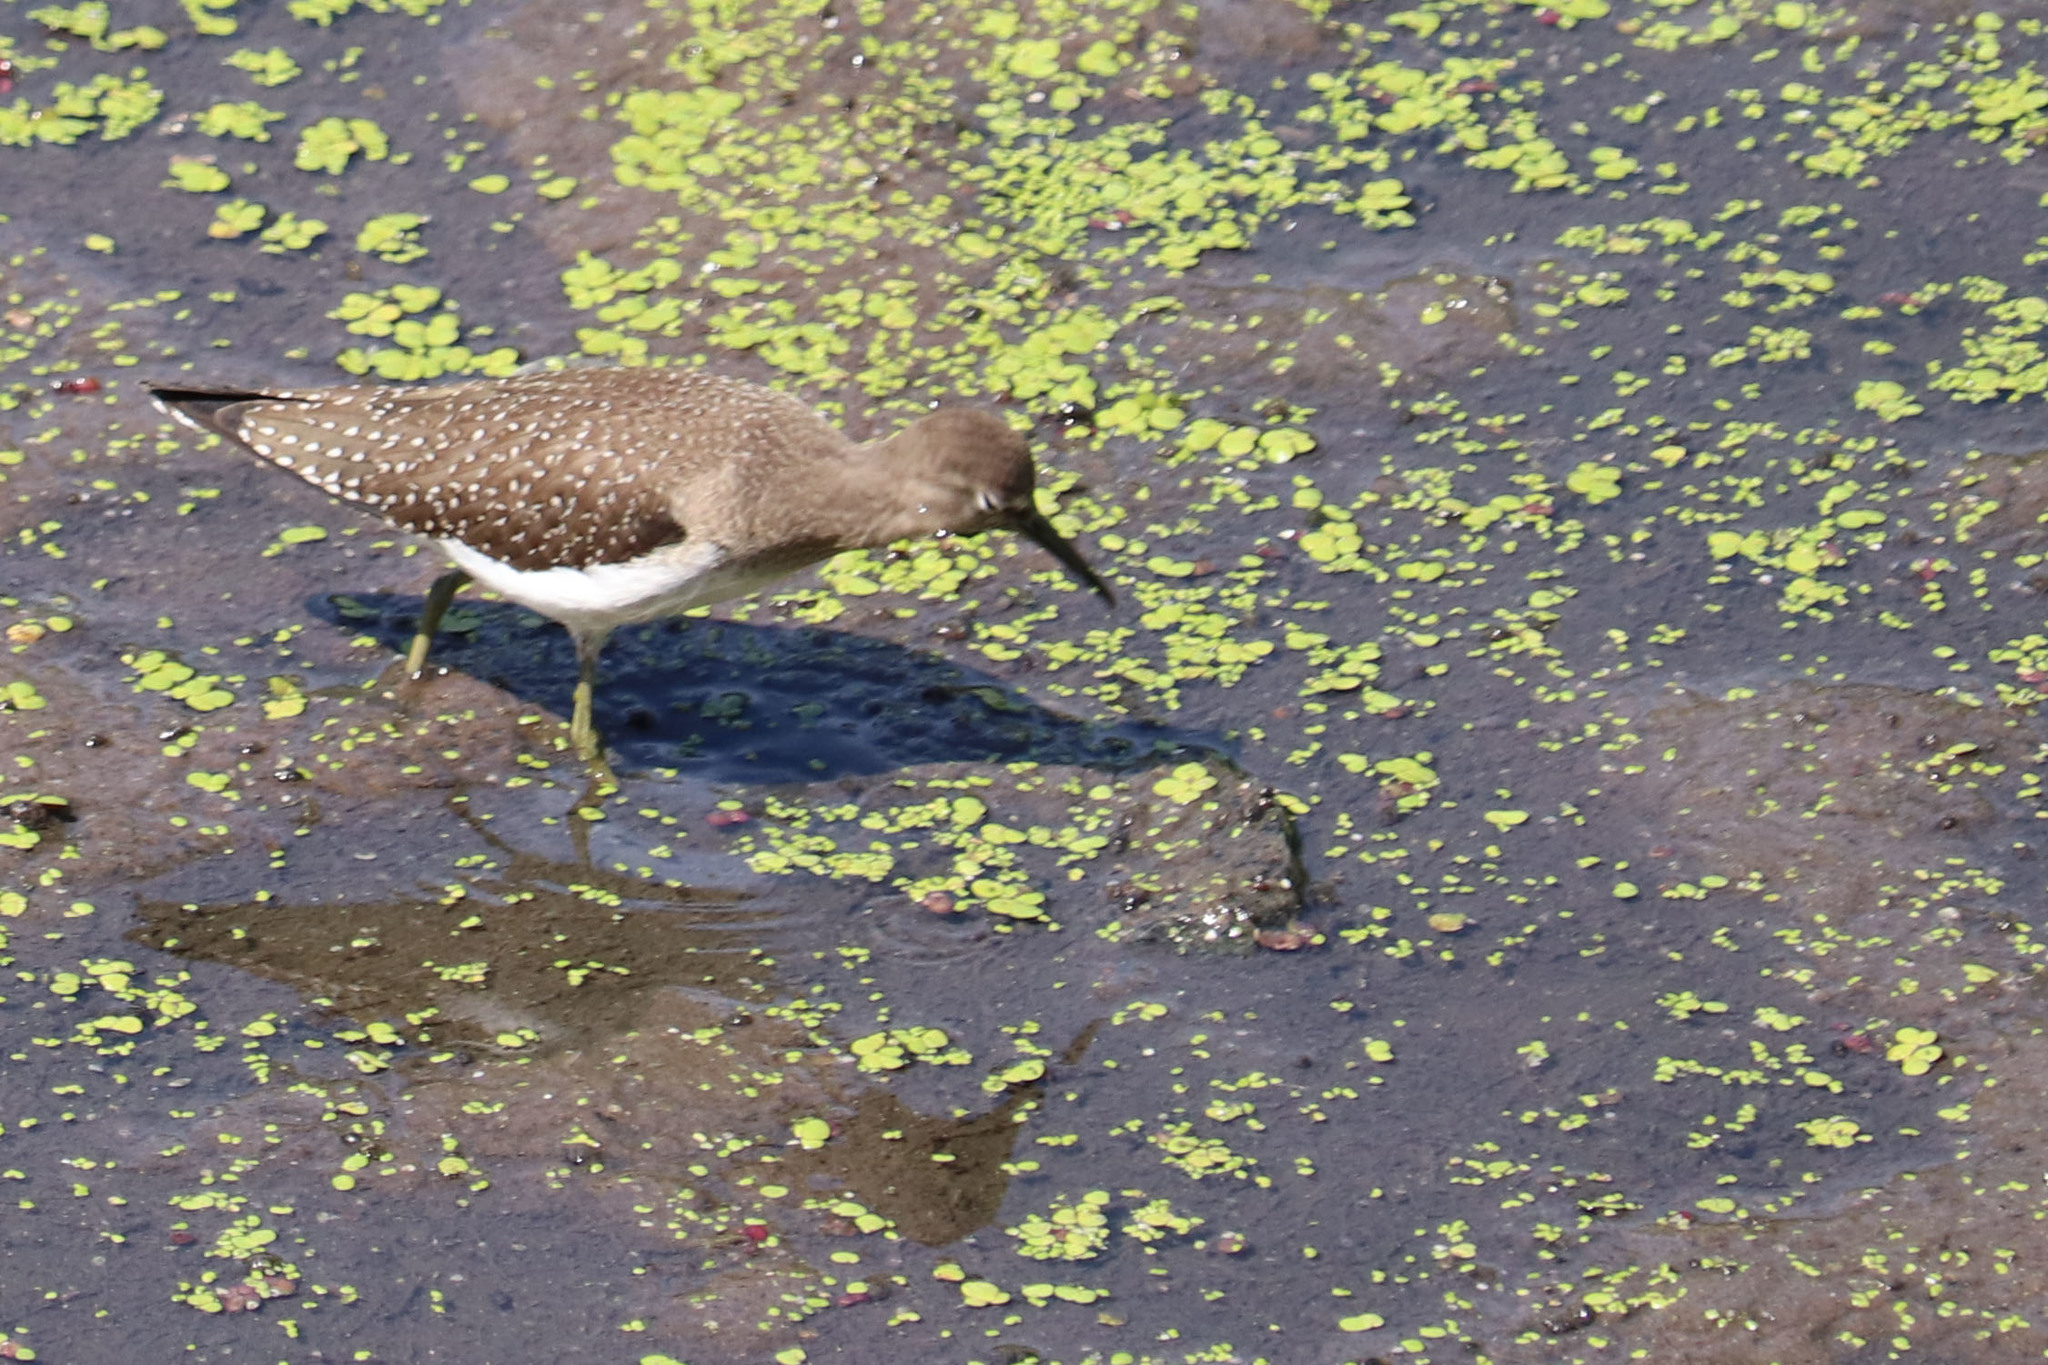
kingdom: Animalia
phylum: Chordata
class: Aves
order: Charadriiformes
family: Scolopacidae
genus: Tringa
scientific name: Tringa solitaria
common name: Solitary sandpiper
